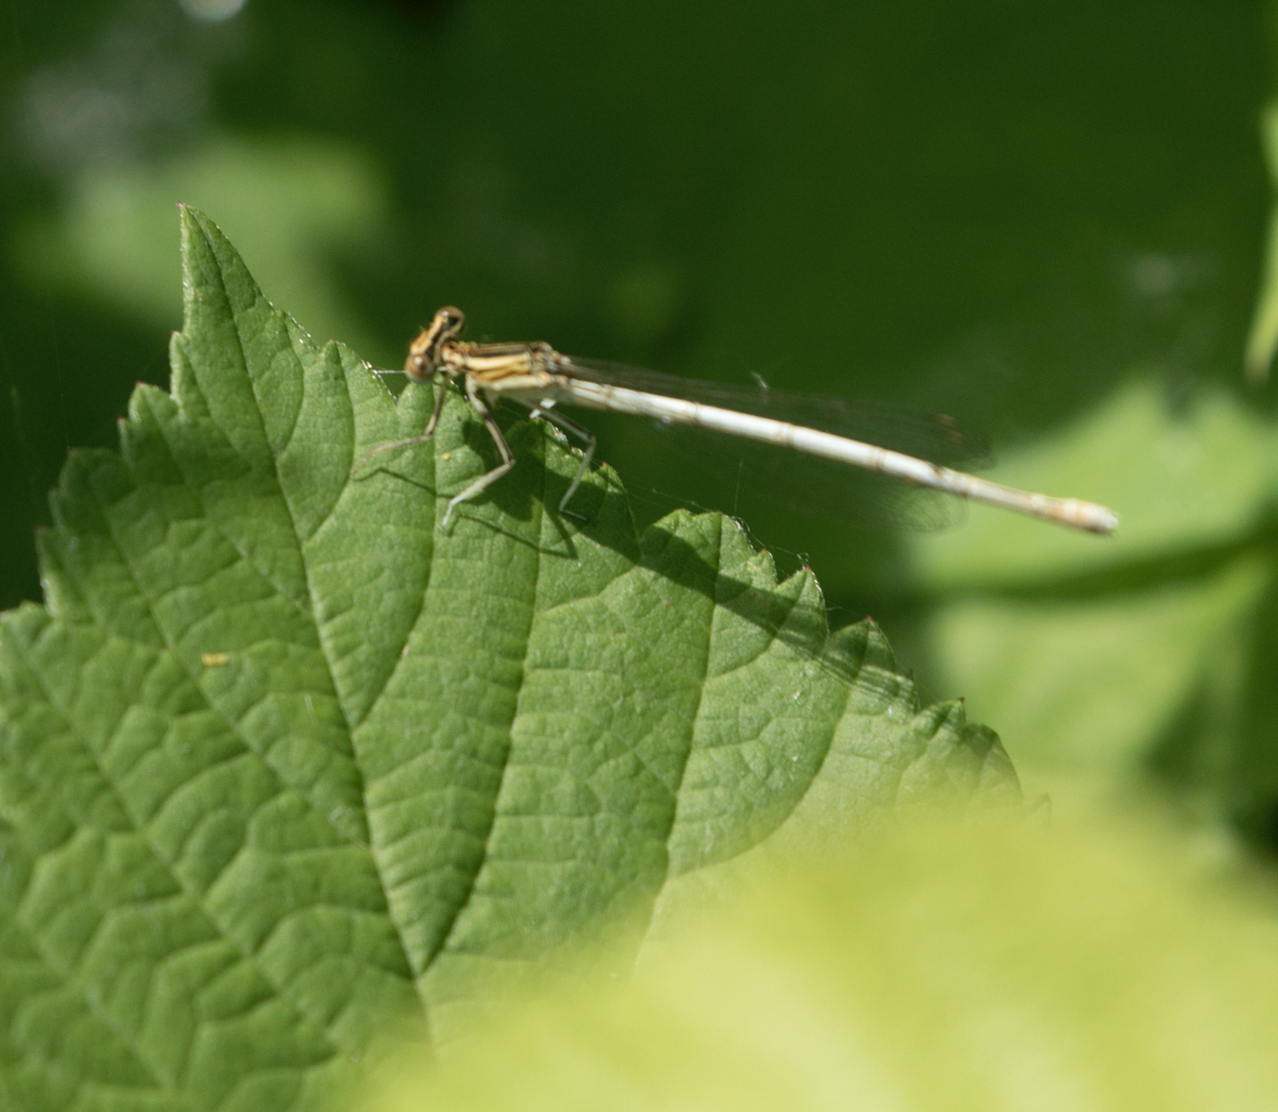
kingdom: Animalia
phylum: Arthropoda
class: Insecta
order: Odonata
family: Platycnemididae
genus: Platycnemis
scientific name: Platycnemis pennipes
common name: White-legged damselfly
